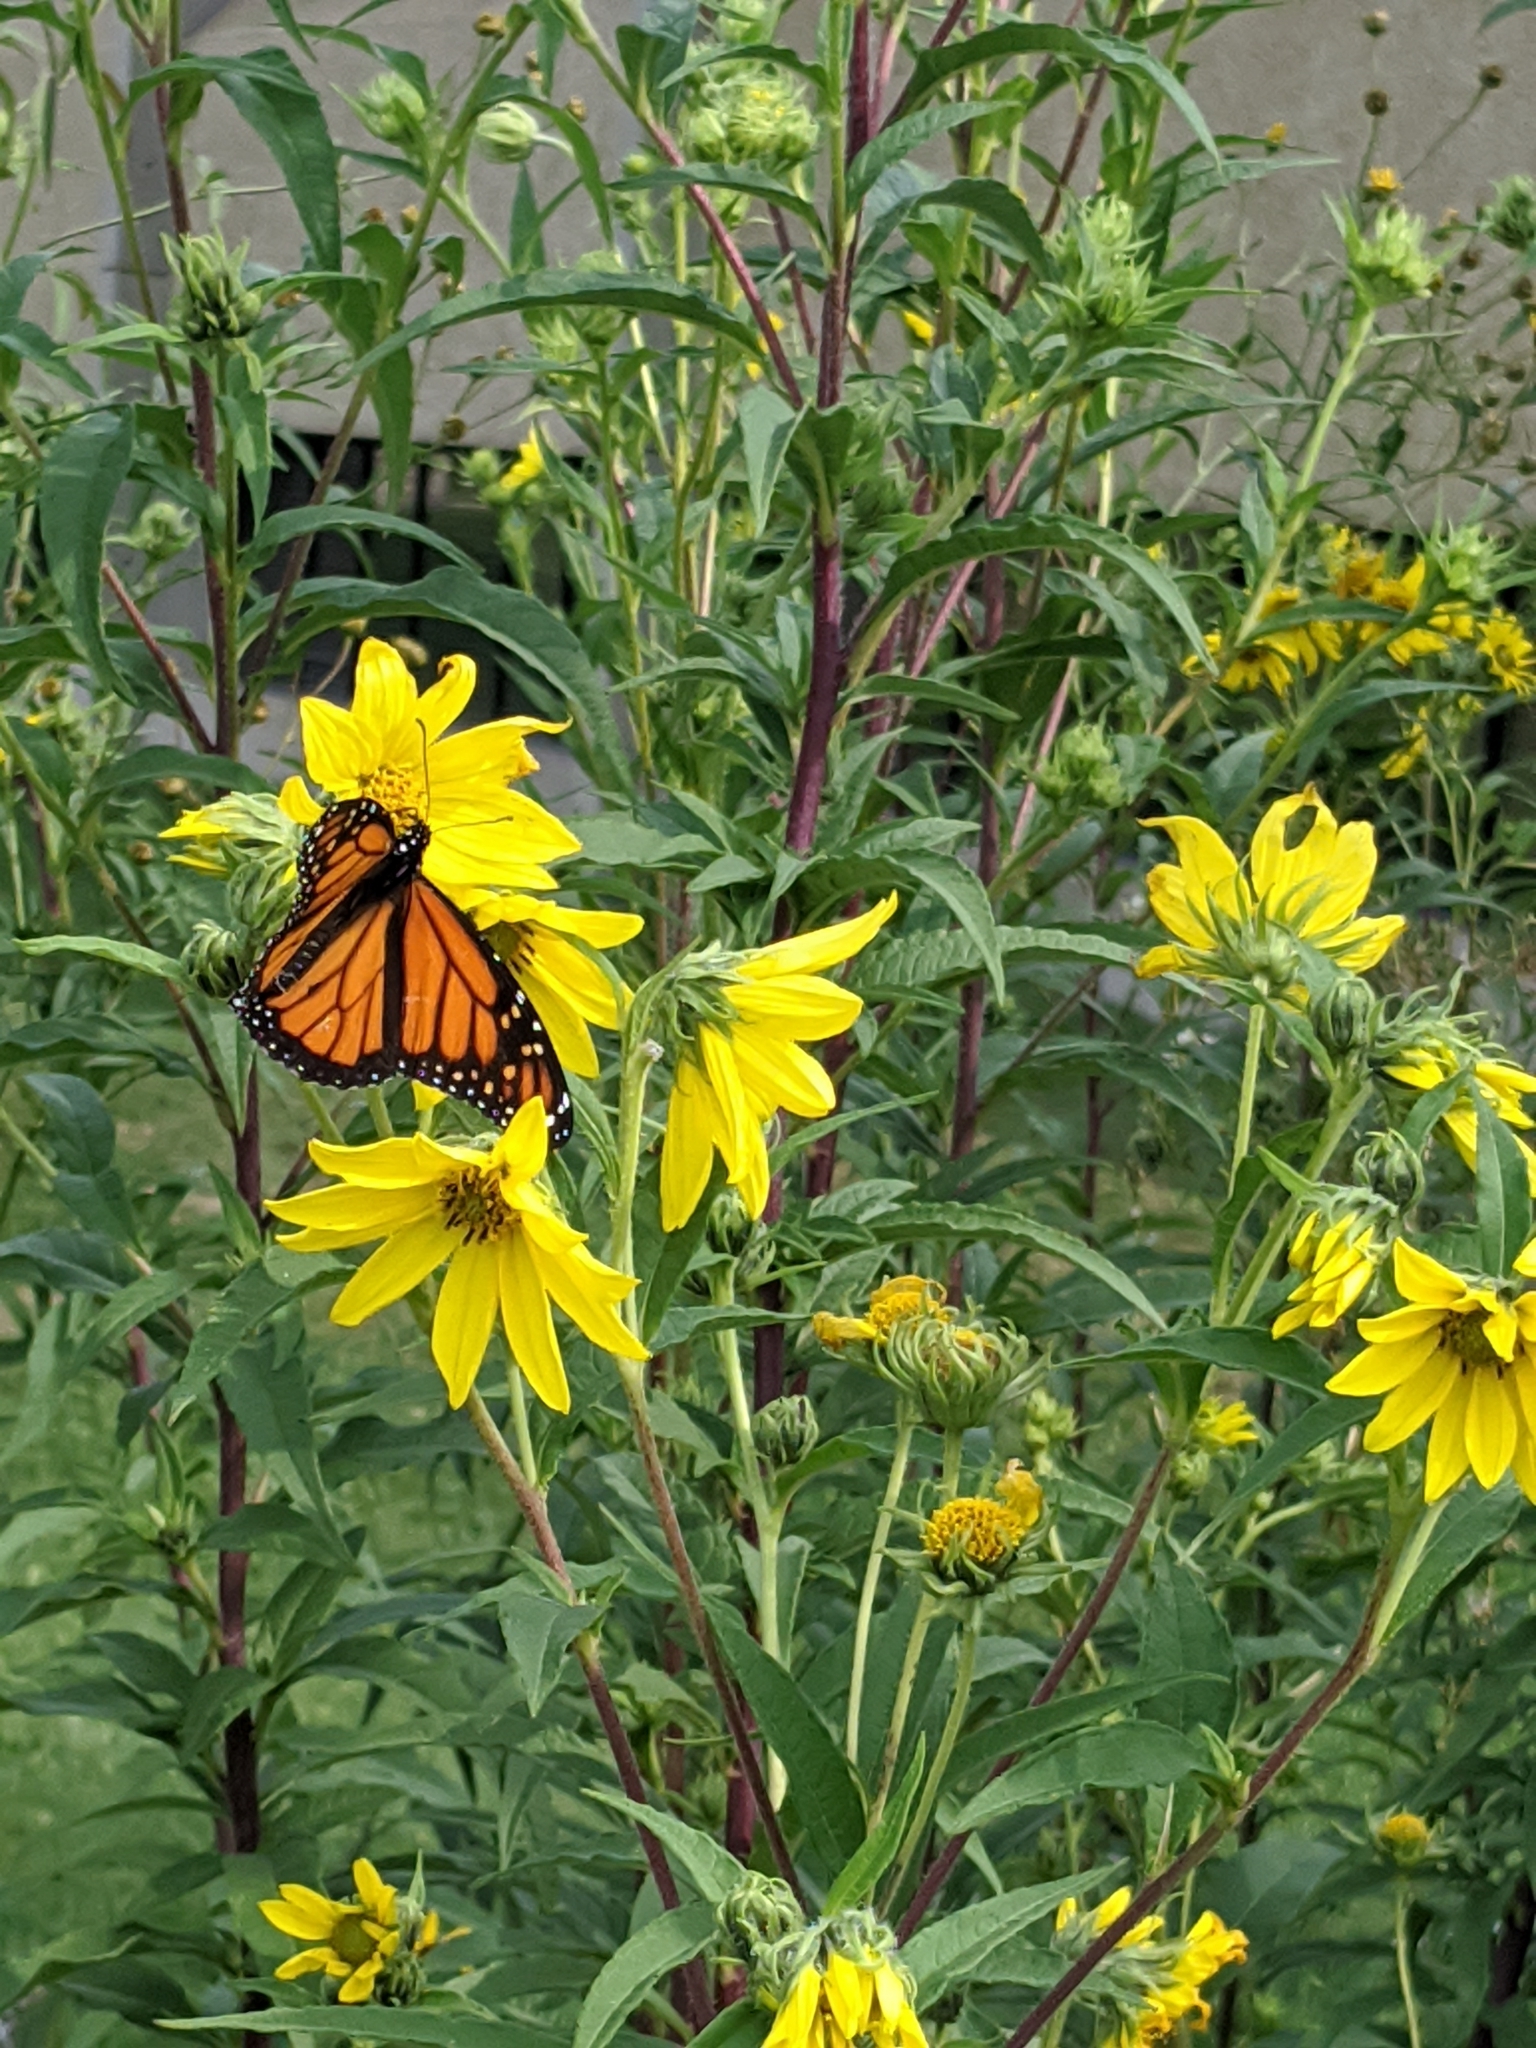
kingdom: Animalia
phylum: Arthropoda
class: Insecta
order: Lepidoptera
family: Nymphalidae
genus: Danaus
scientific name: Danaus plexippus
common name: Monarch
